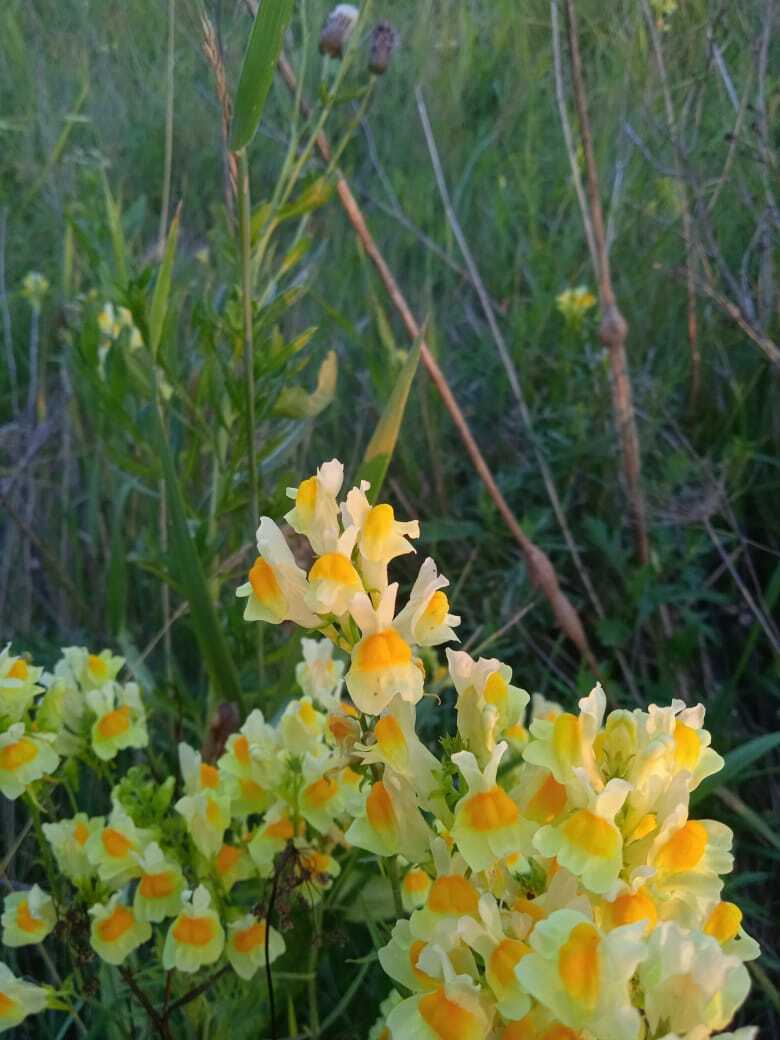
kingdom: Plantae
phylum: Tracheophyta
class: Magnoliopsida
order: Lamiales
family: Plantaginaceae
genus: Linaria
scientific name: Linaria vulgaris
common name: Butter and eggs
